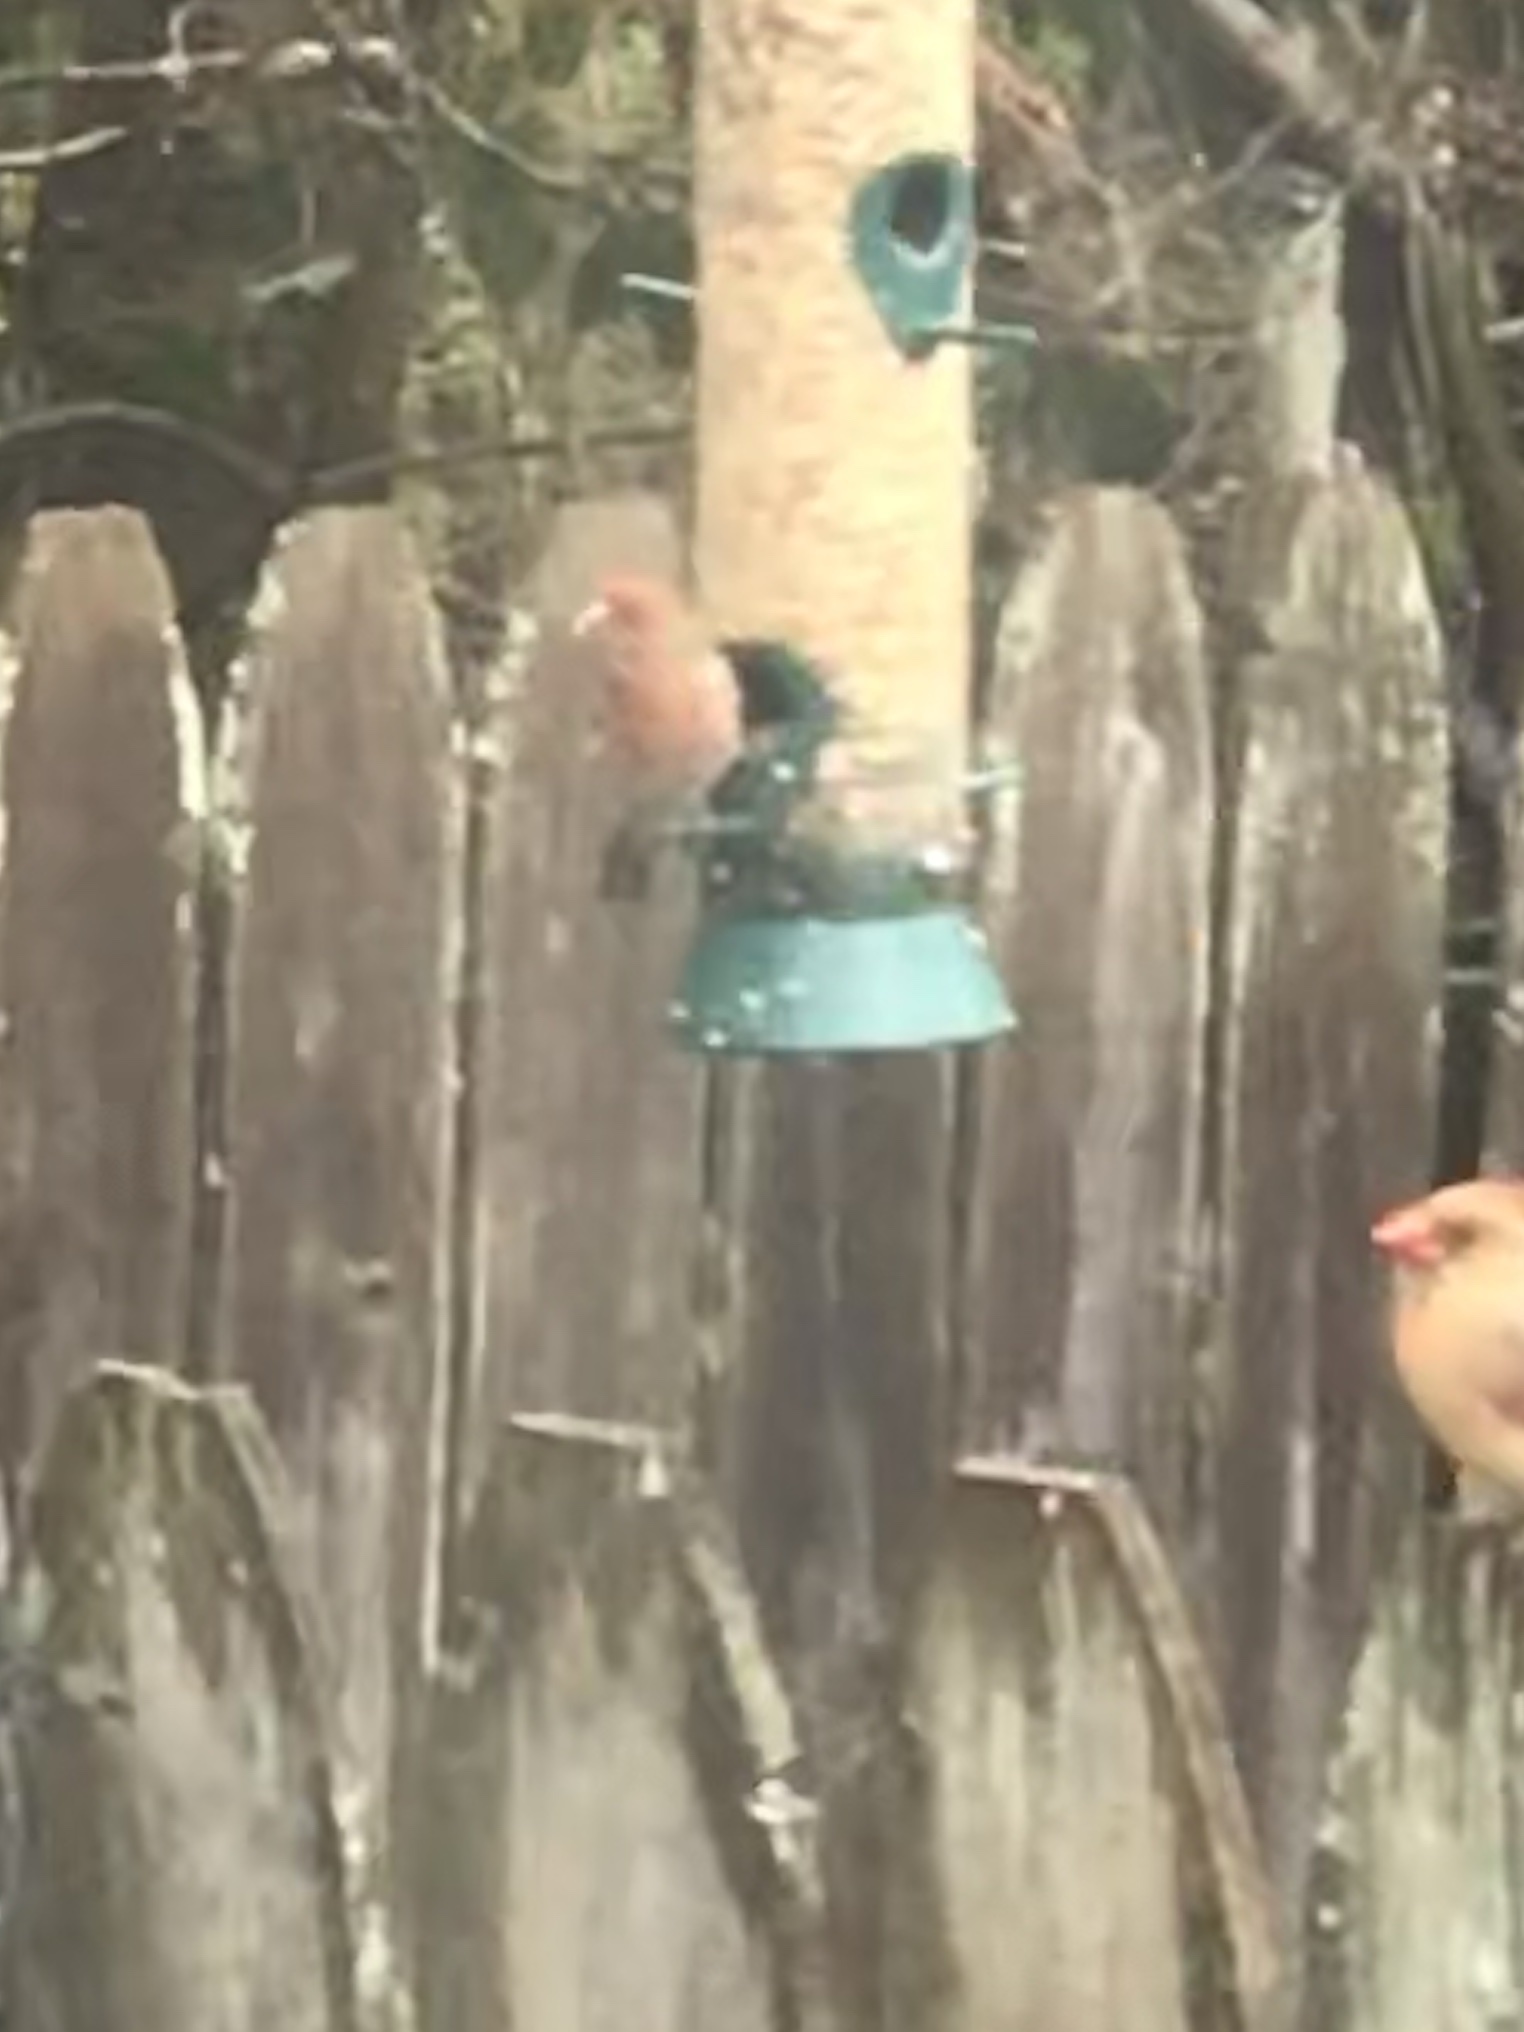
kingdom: Animalia
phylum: Chordata
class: Aves
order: Passeriformes
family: Fringillidae
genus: Haemorhous
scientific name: Haemorhous mexicanus
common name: House finch
